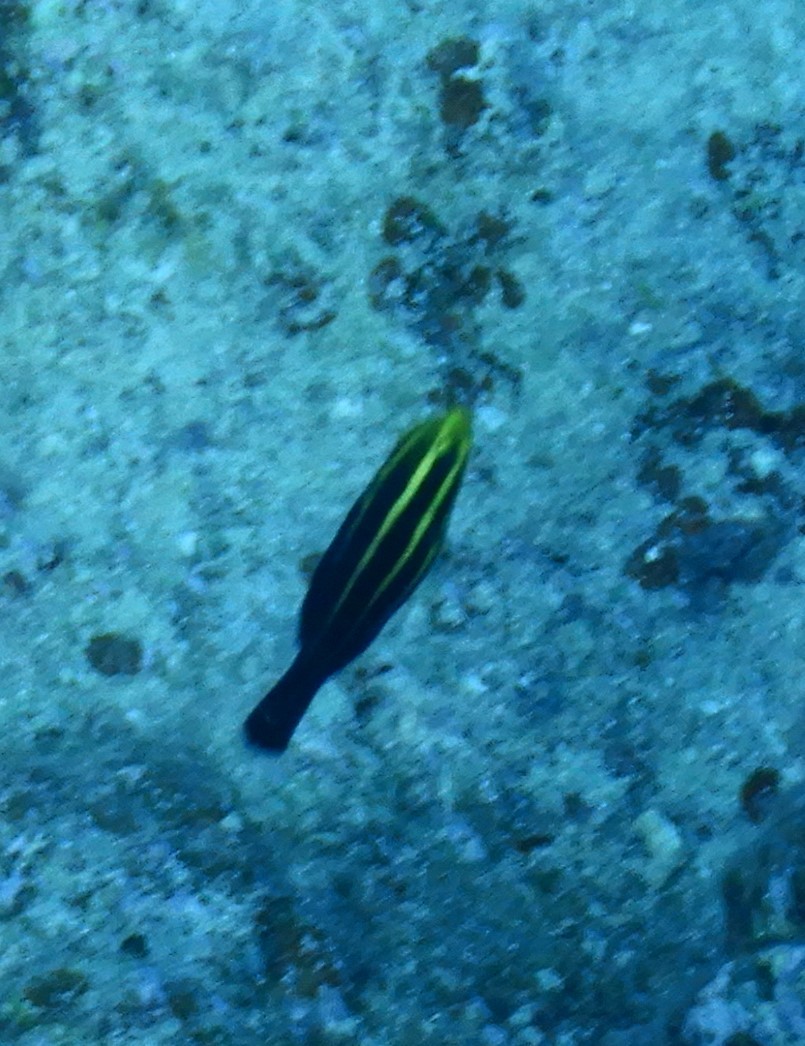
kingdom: Animalia
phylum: Chordata
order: Perciformes
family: Scaridae
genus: Chlorurus
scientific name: Chlorurus gibbus
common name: Heavybeak parrotfish
